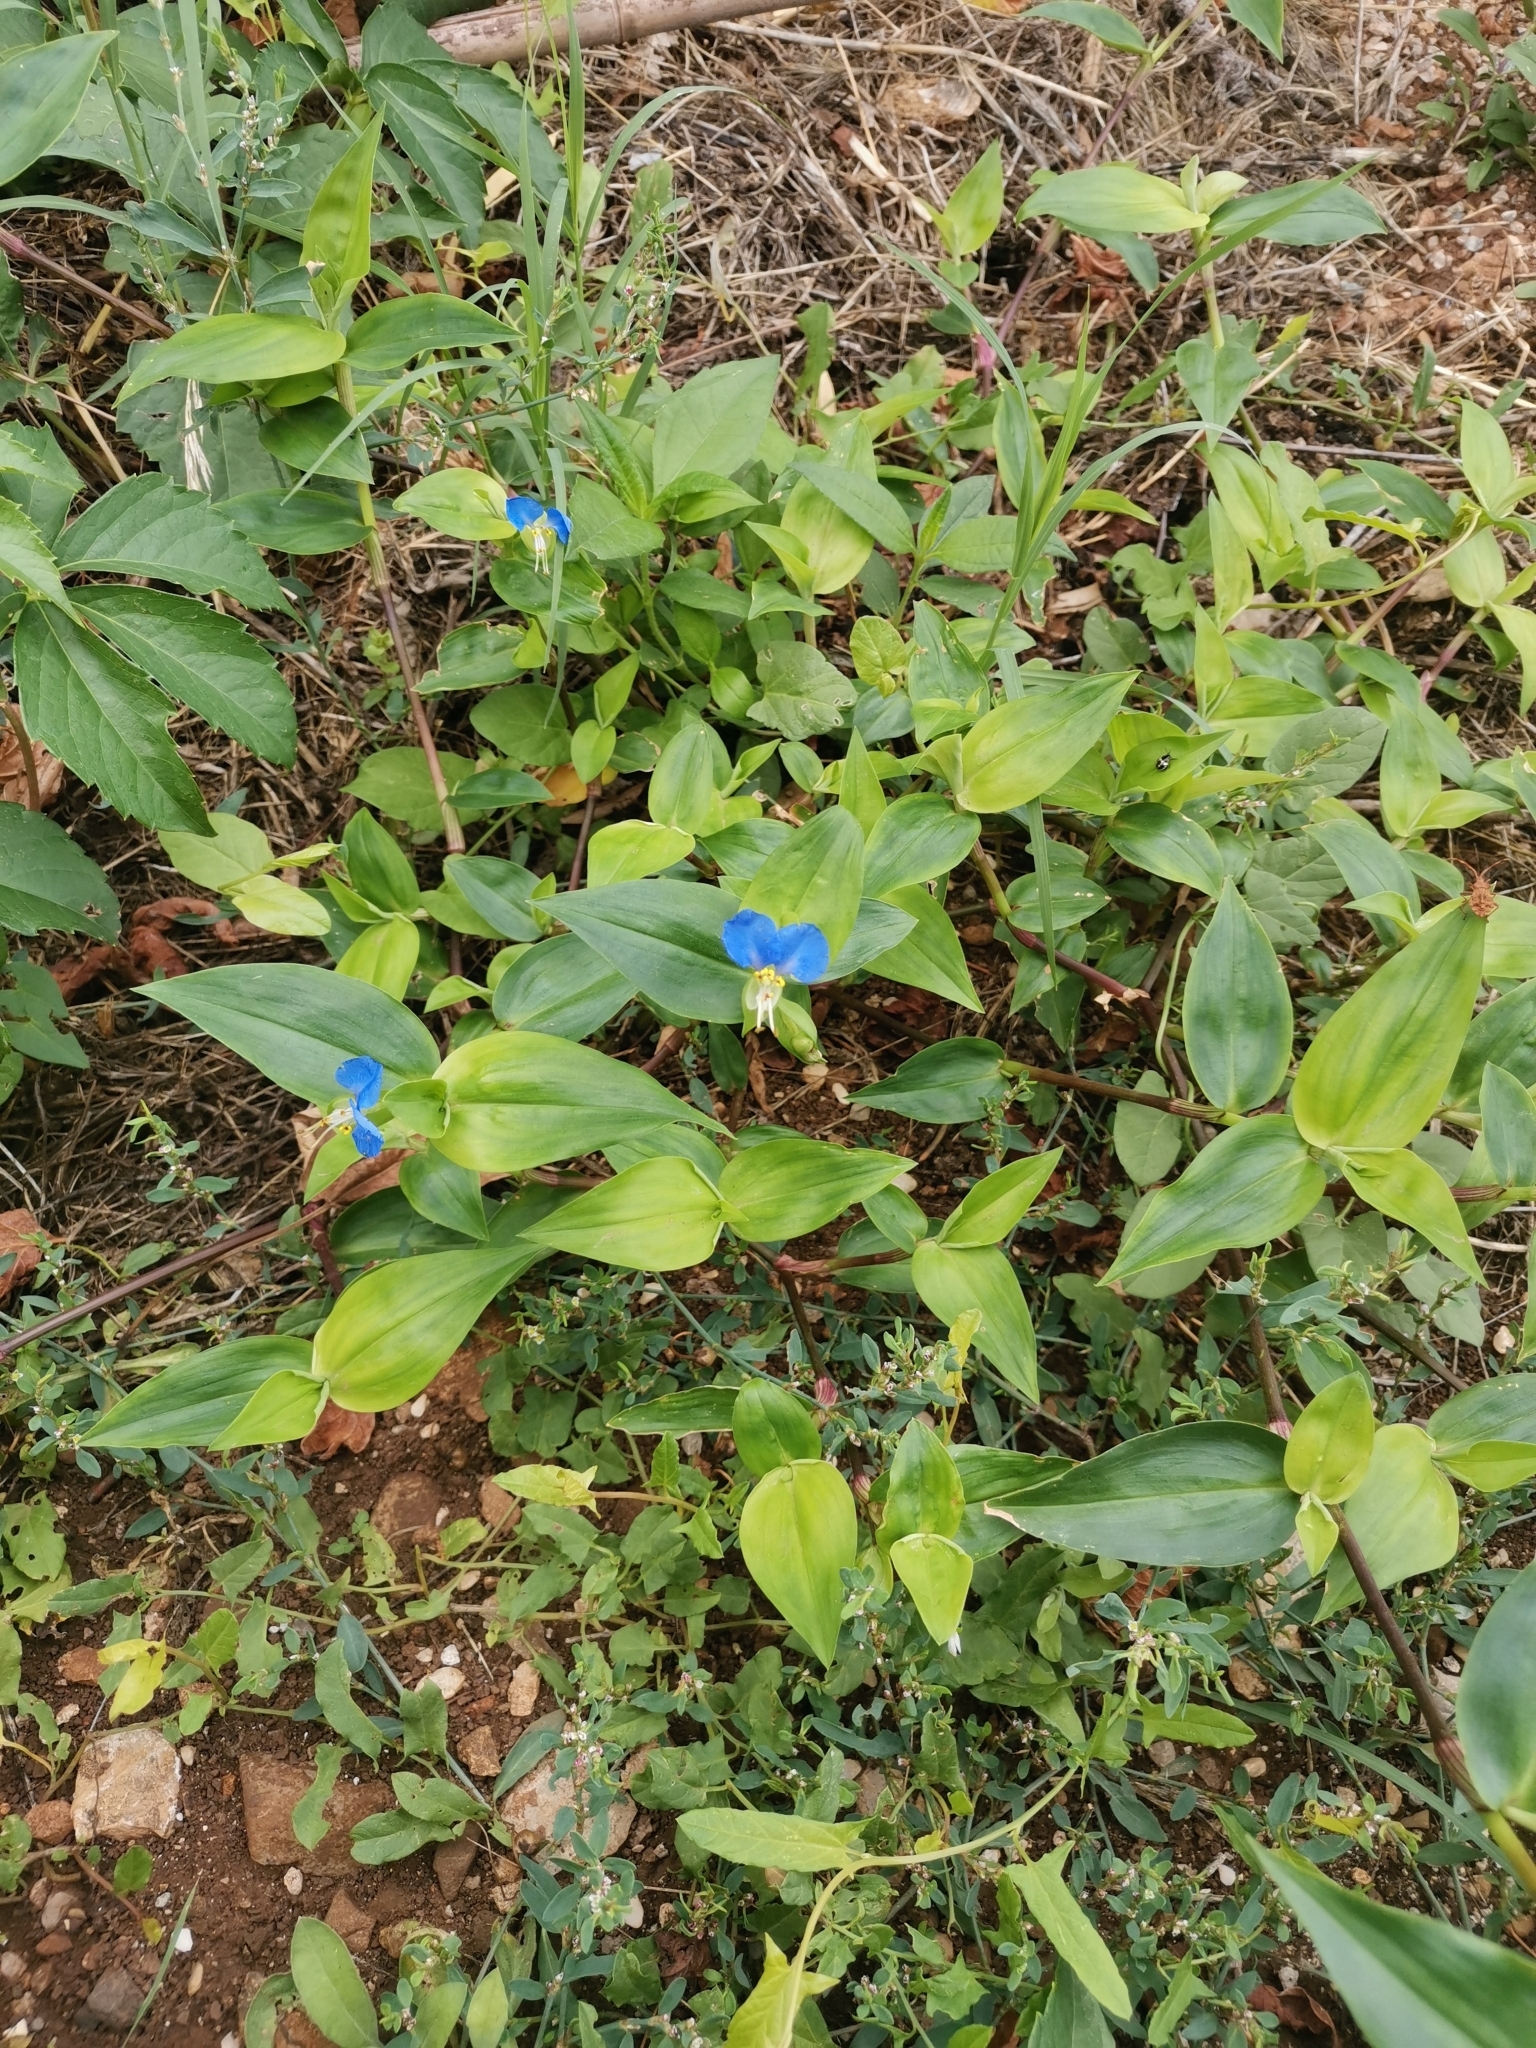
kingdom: Plantae
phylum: Tracheophyta
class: Liliopsida
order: Commelinales
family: Commelinaceae
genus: Commelina
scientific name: Commelina communis
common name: Asiatic dayflower
